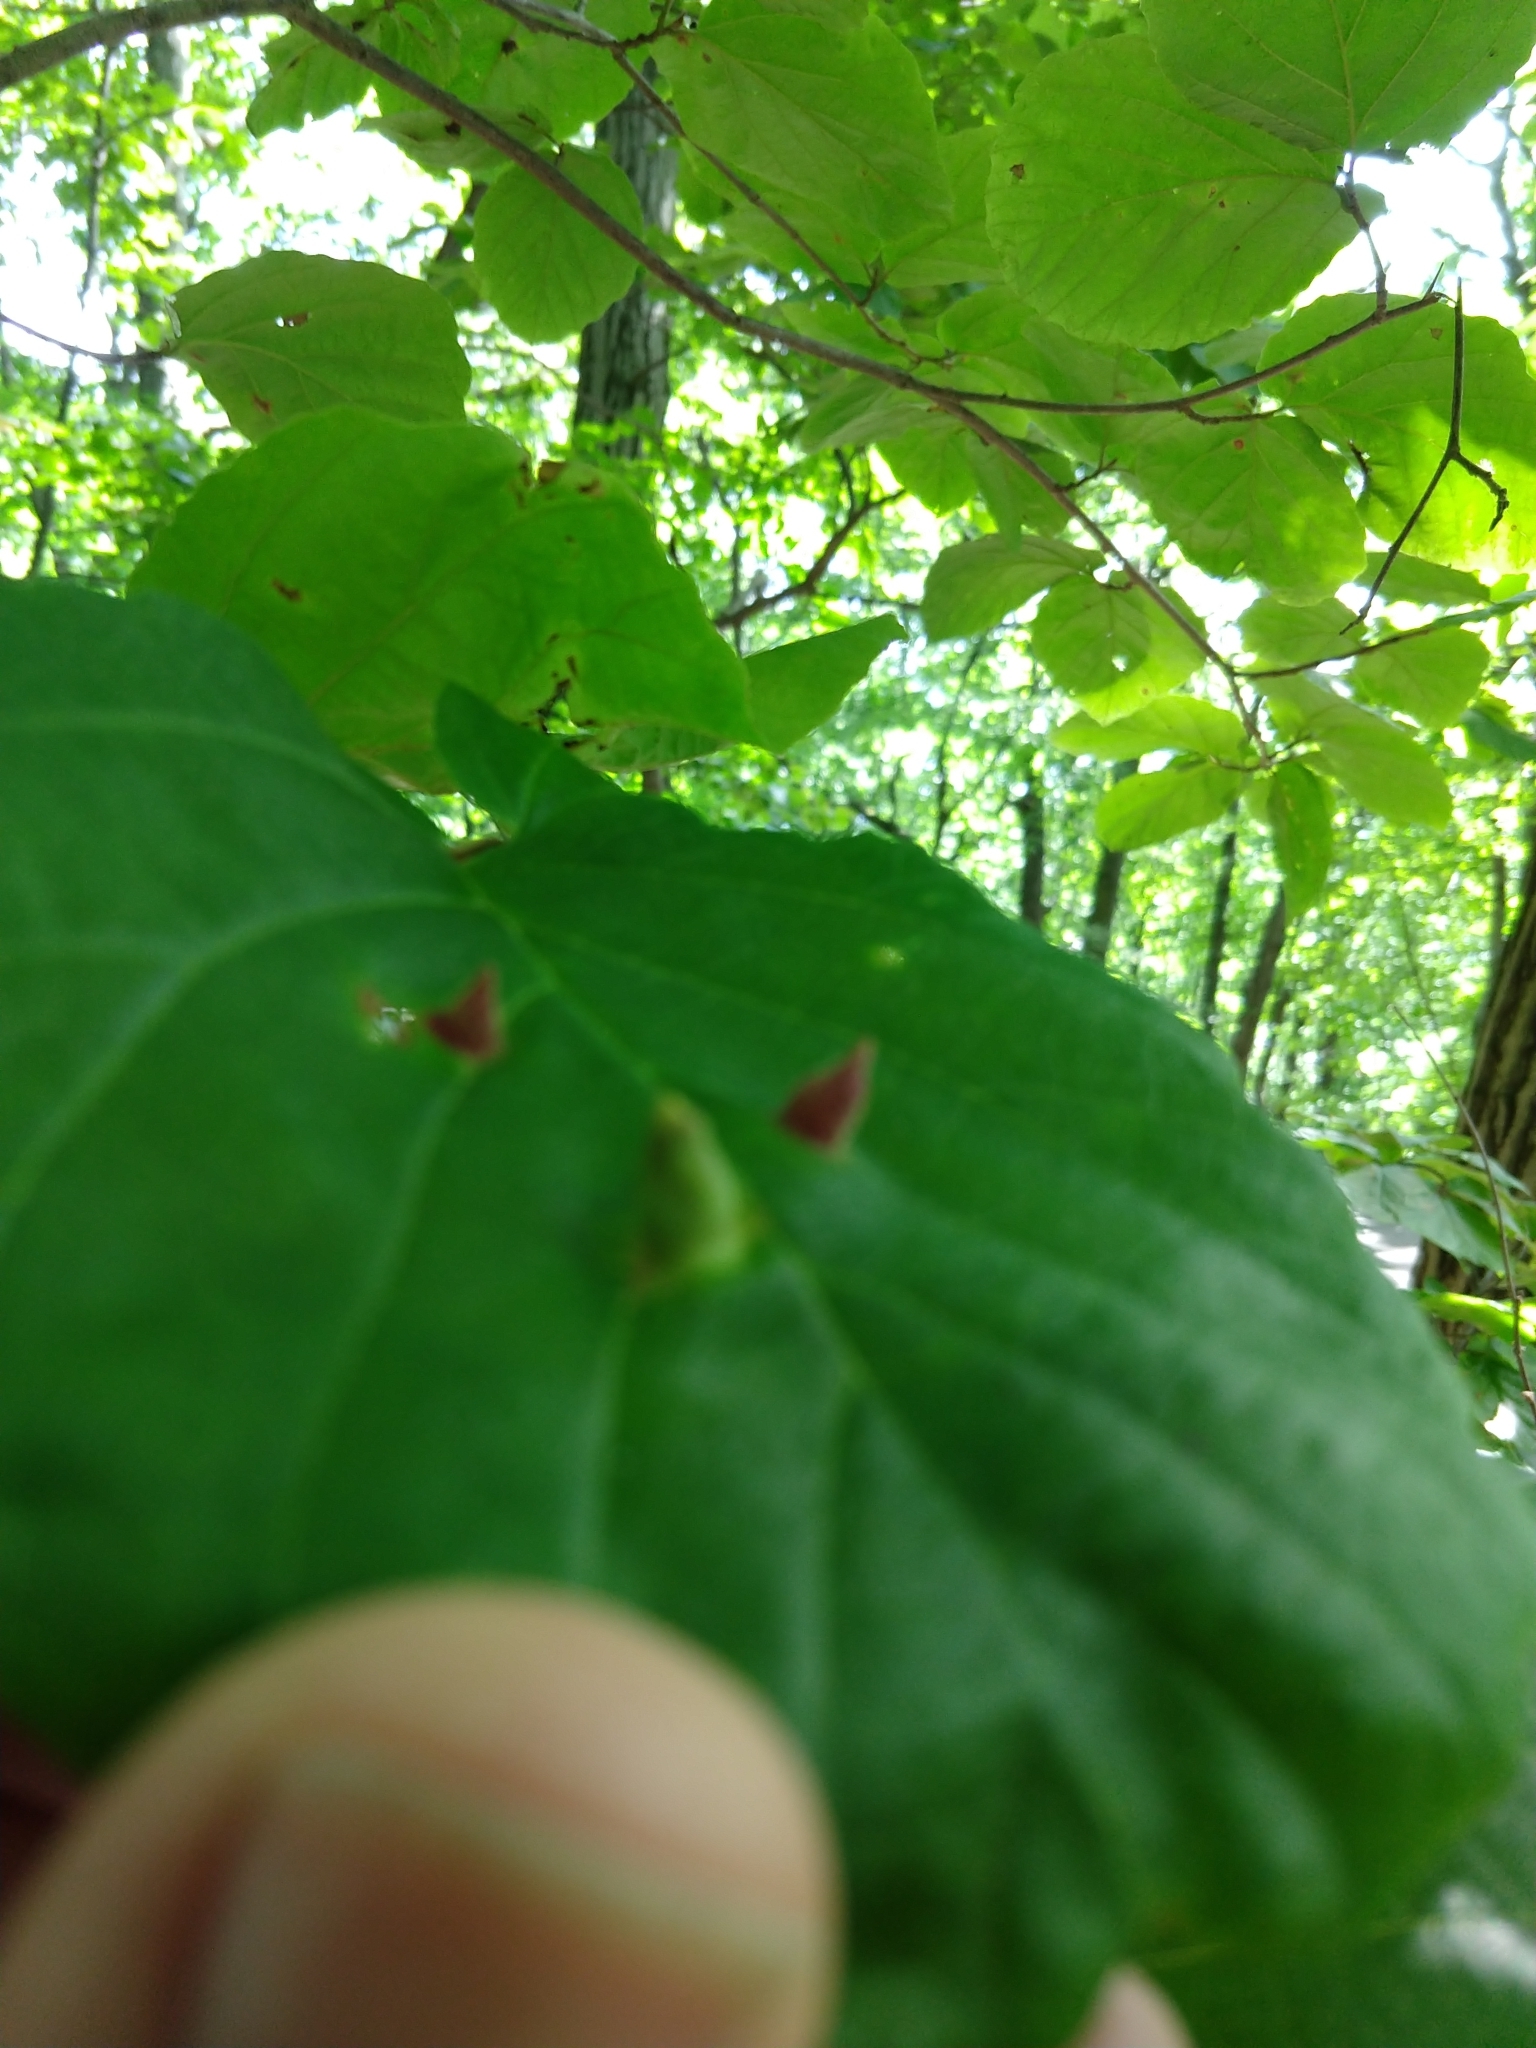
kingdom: Animalia
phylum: Arthropoda
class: Insecta
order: Hemiptera
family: Aphididae
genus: Hormaphis
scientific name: Hormaphis hamamelidis
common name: Witch-hazel cone gall aphid
